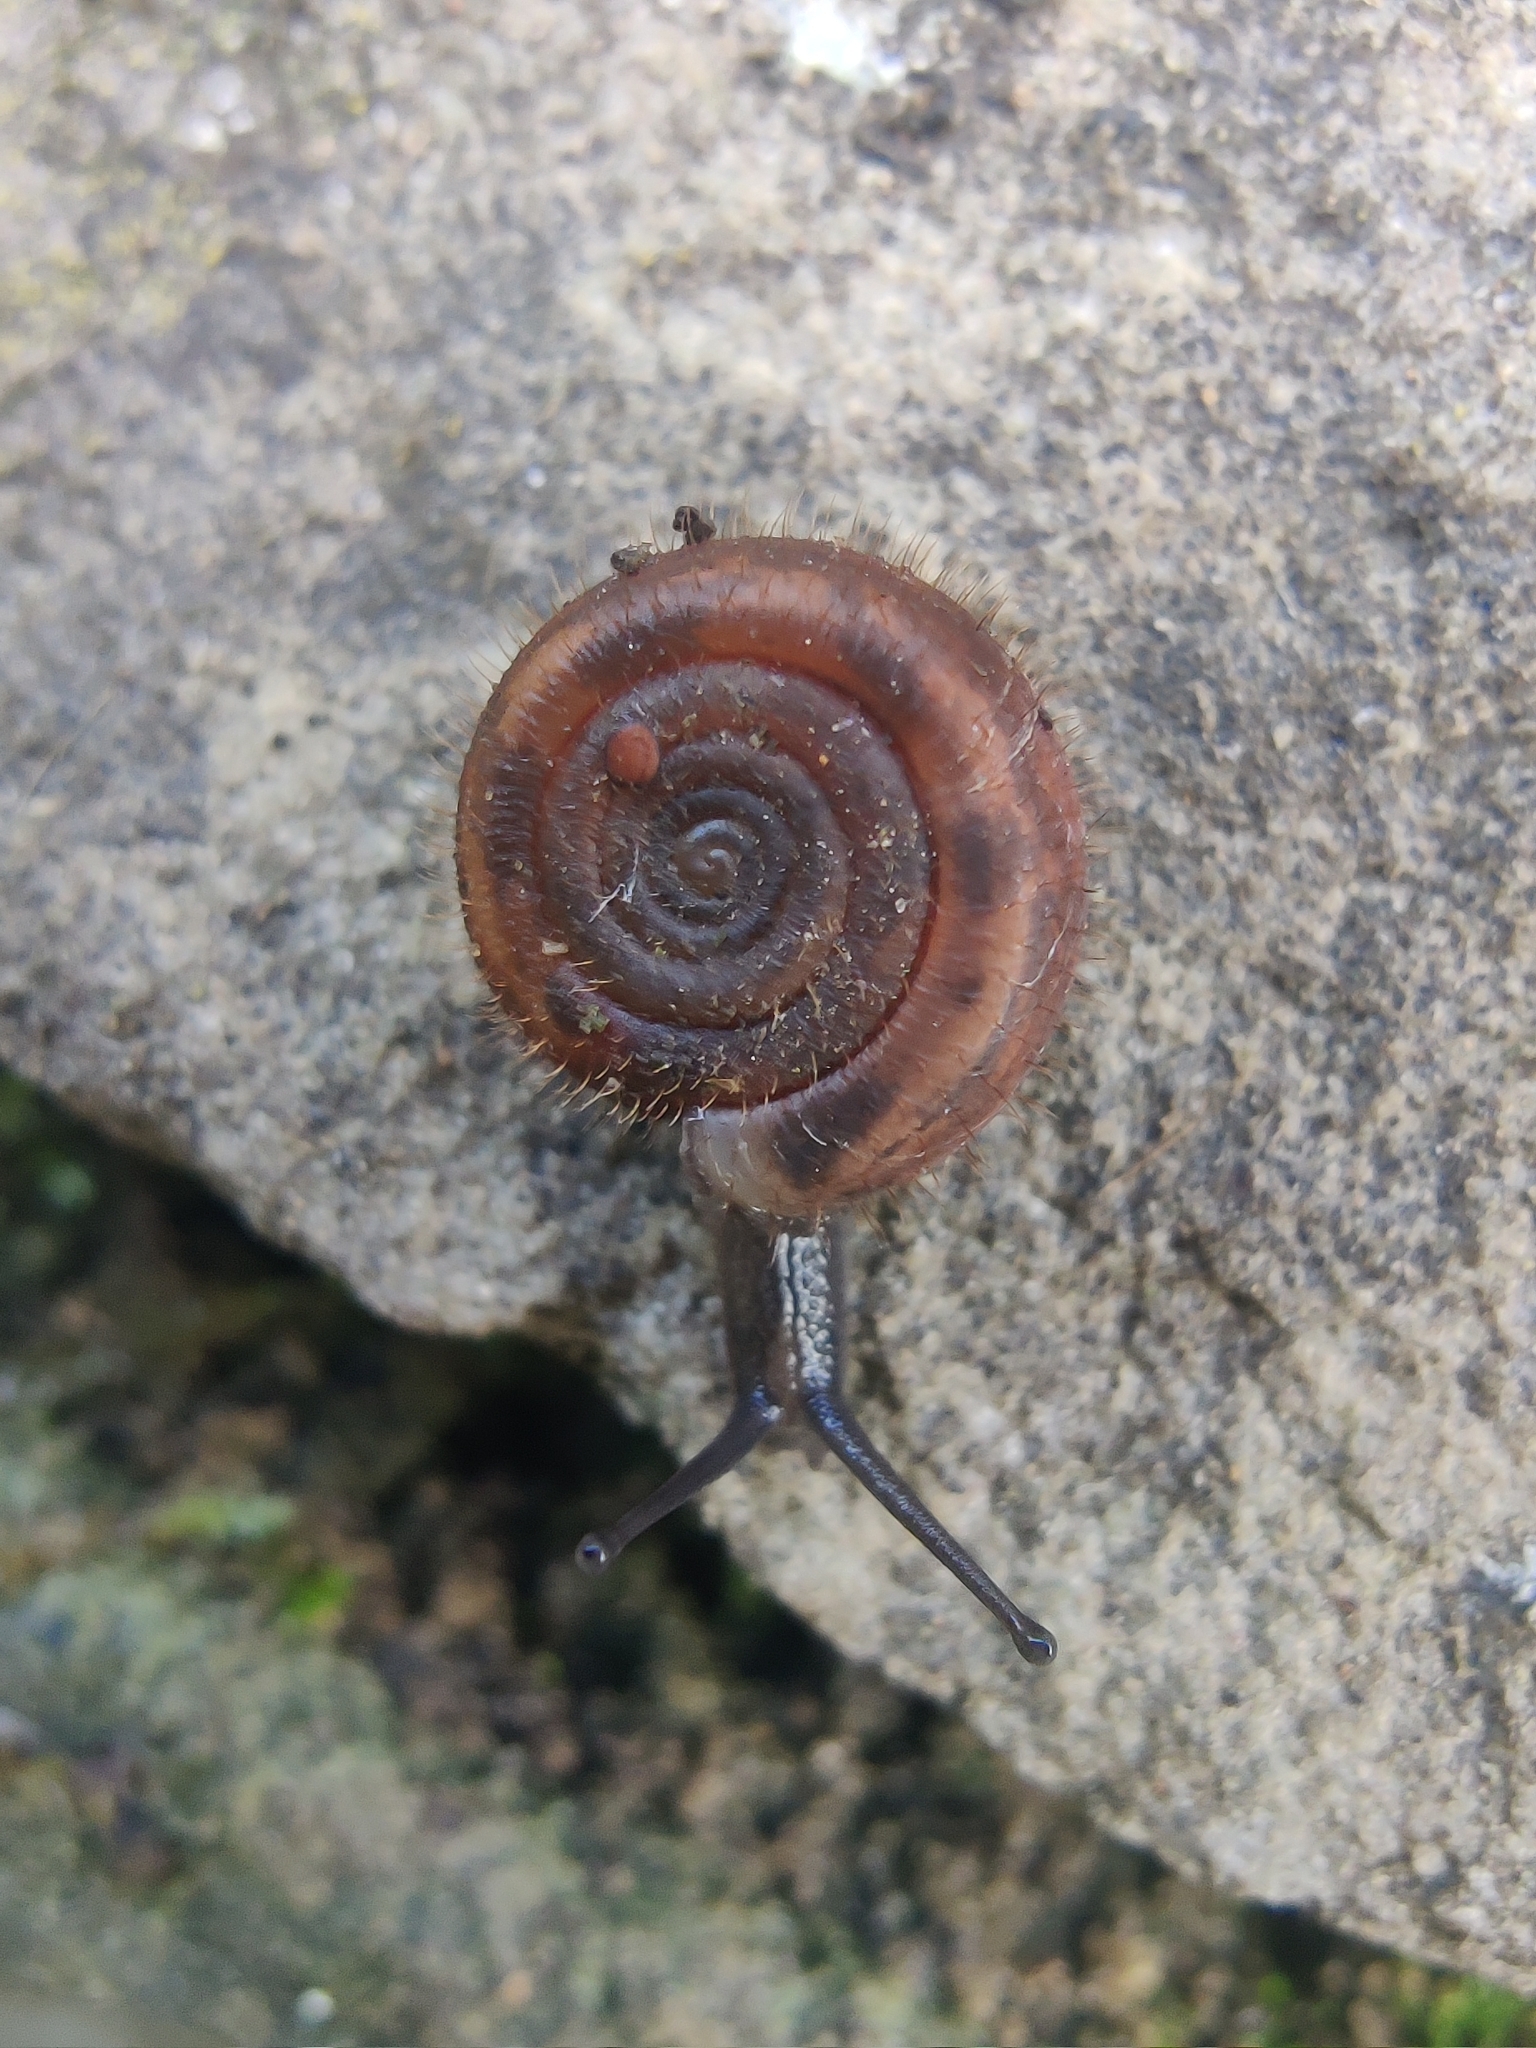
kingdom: Animalia
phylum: Mollusca
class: Gastropoda
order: Stylommatophora
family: Helicodontidae
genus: Helicodonta
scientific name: Helicodonta obvoluta
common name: Cheese snail
